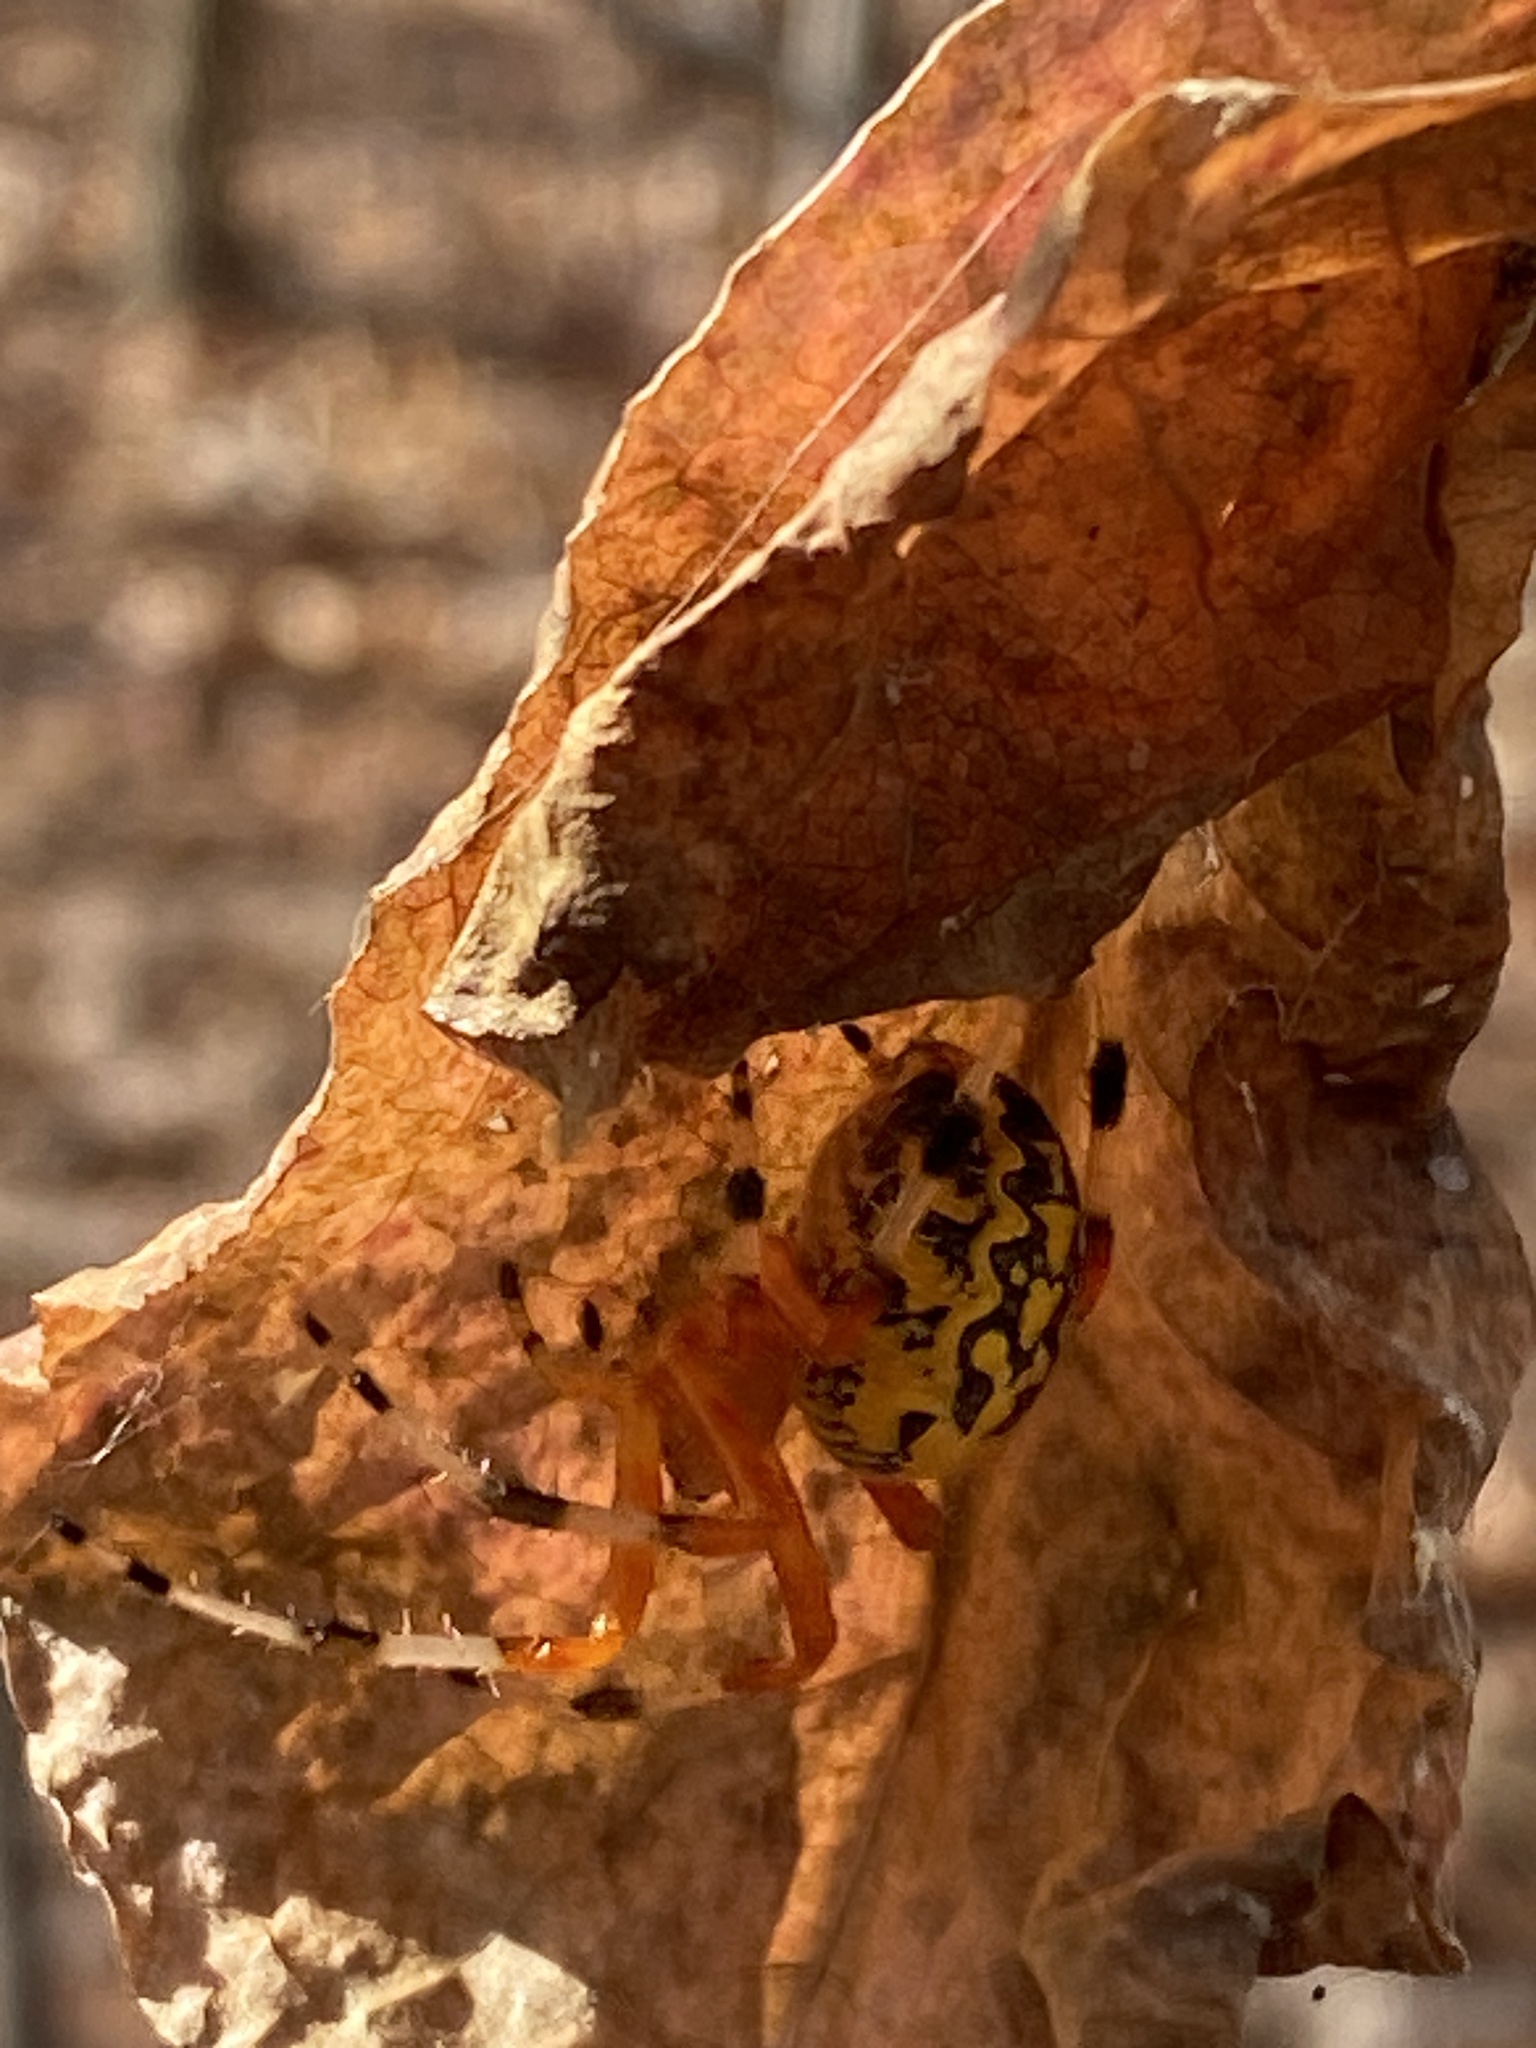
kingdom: Animalia
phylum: Arthropoda
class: Arachnida
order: Araneae
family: Araneidae
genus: Araneus
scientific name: Araneus marmoreus
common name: Marbled orbweaver
